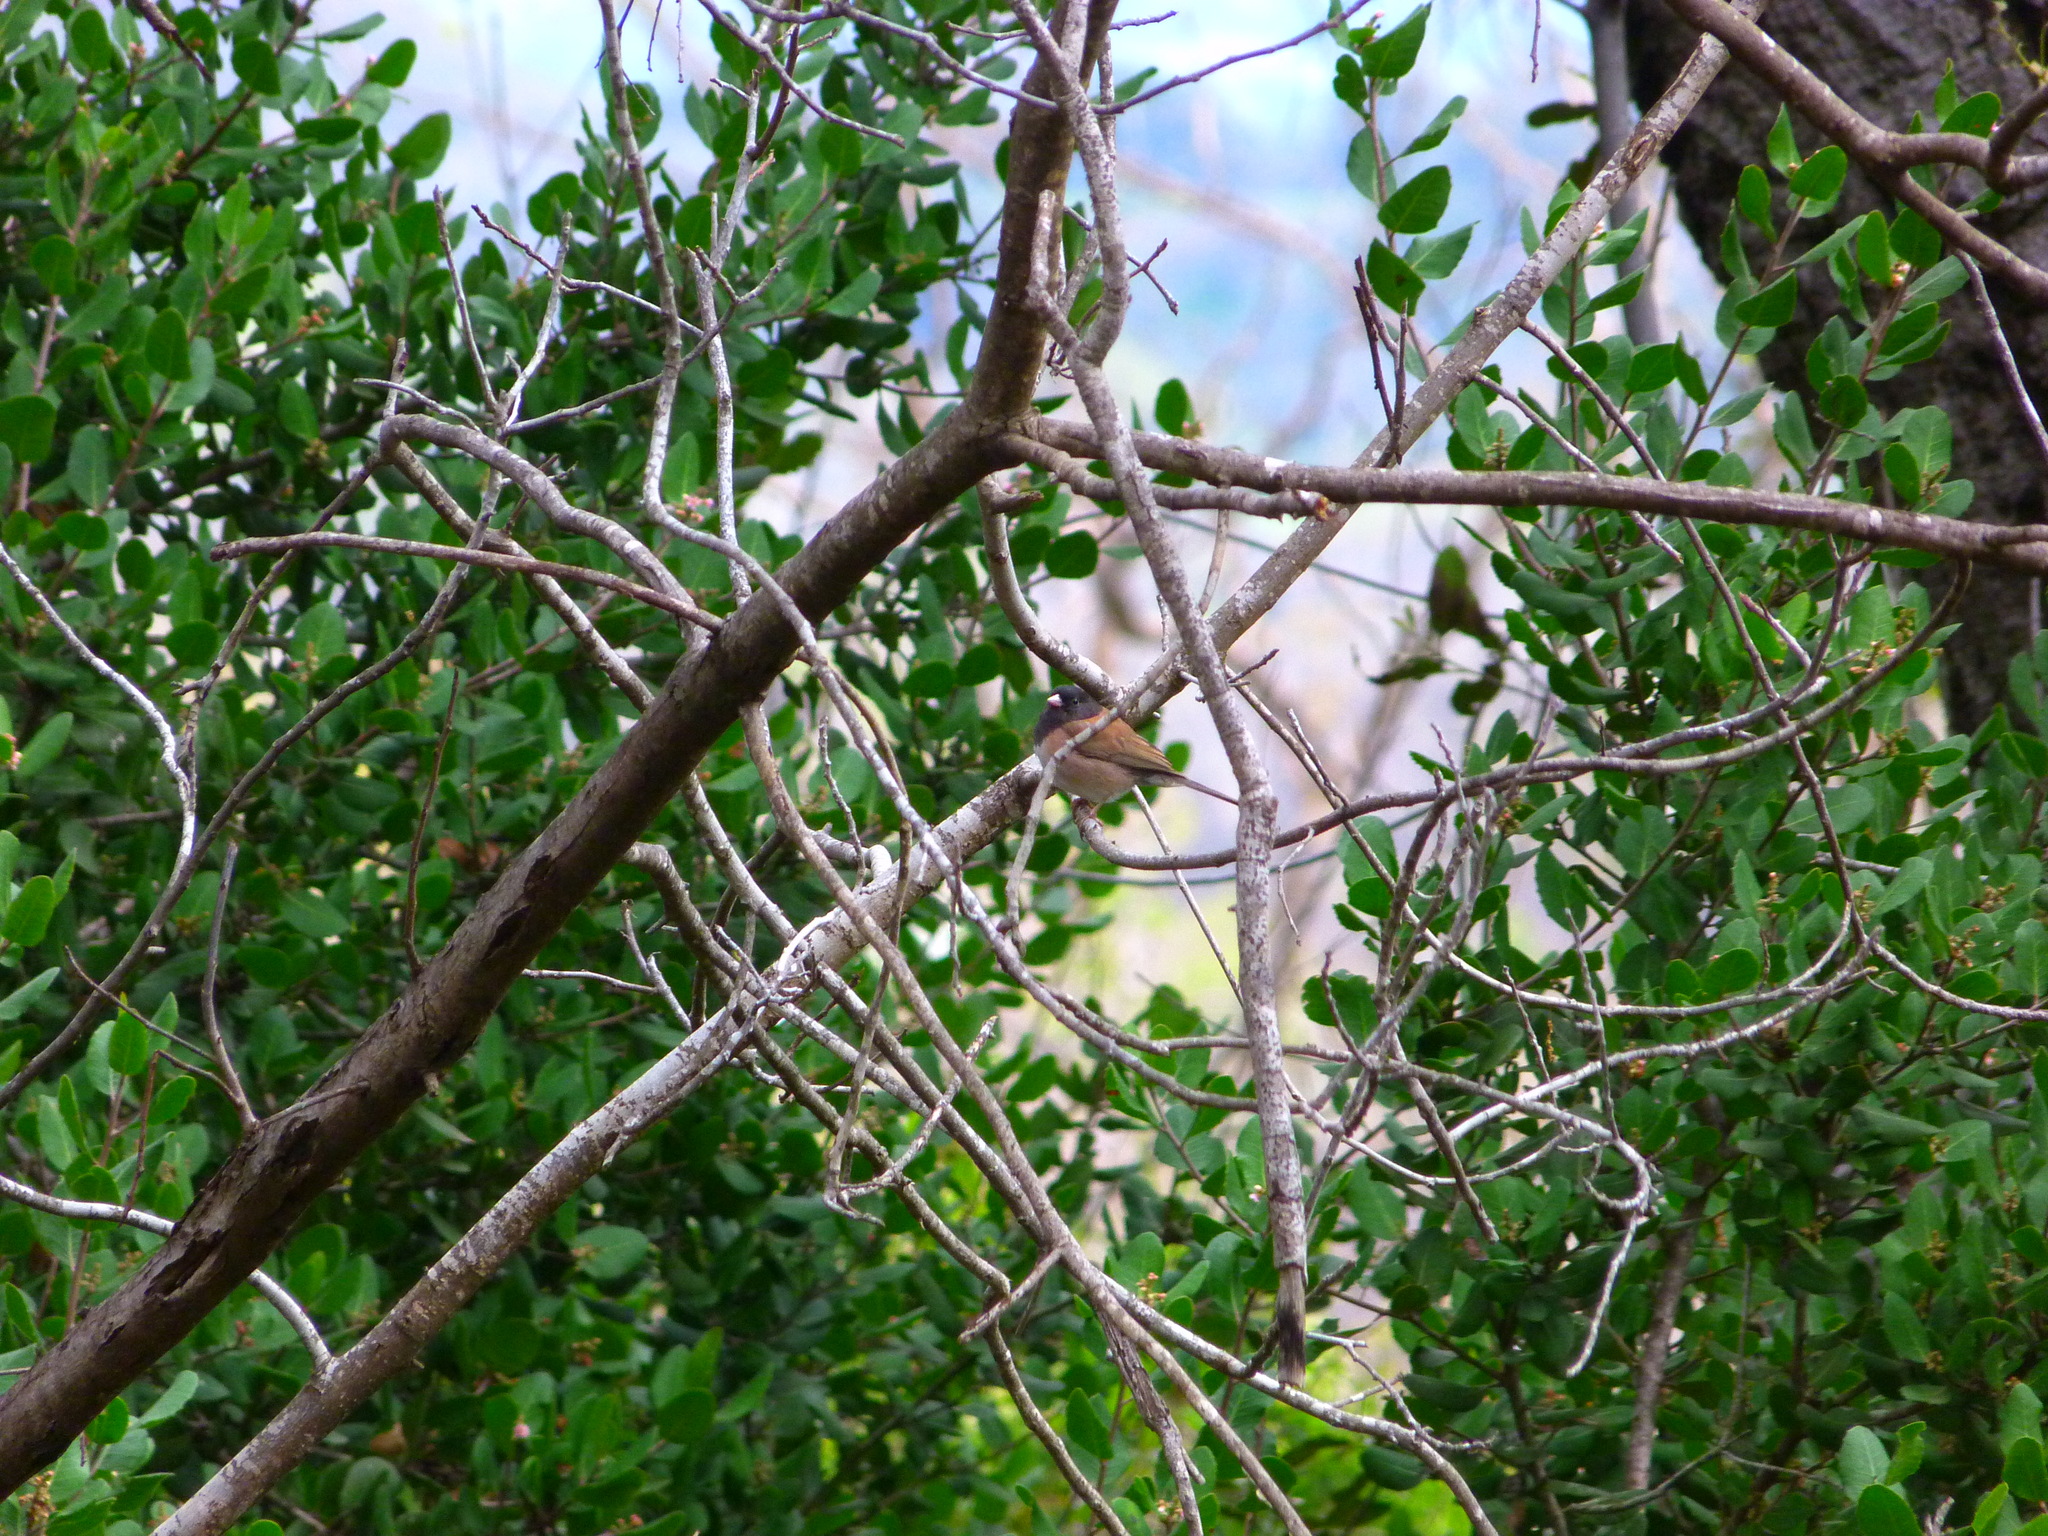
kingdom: Animalia
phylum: Chordata
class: Aves
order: Passeriformes
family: Passerellidae
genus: Junco
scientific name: Junco hyemalis
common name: Dark-eyed junco
